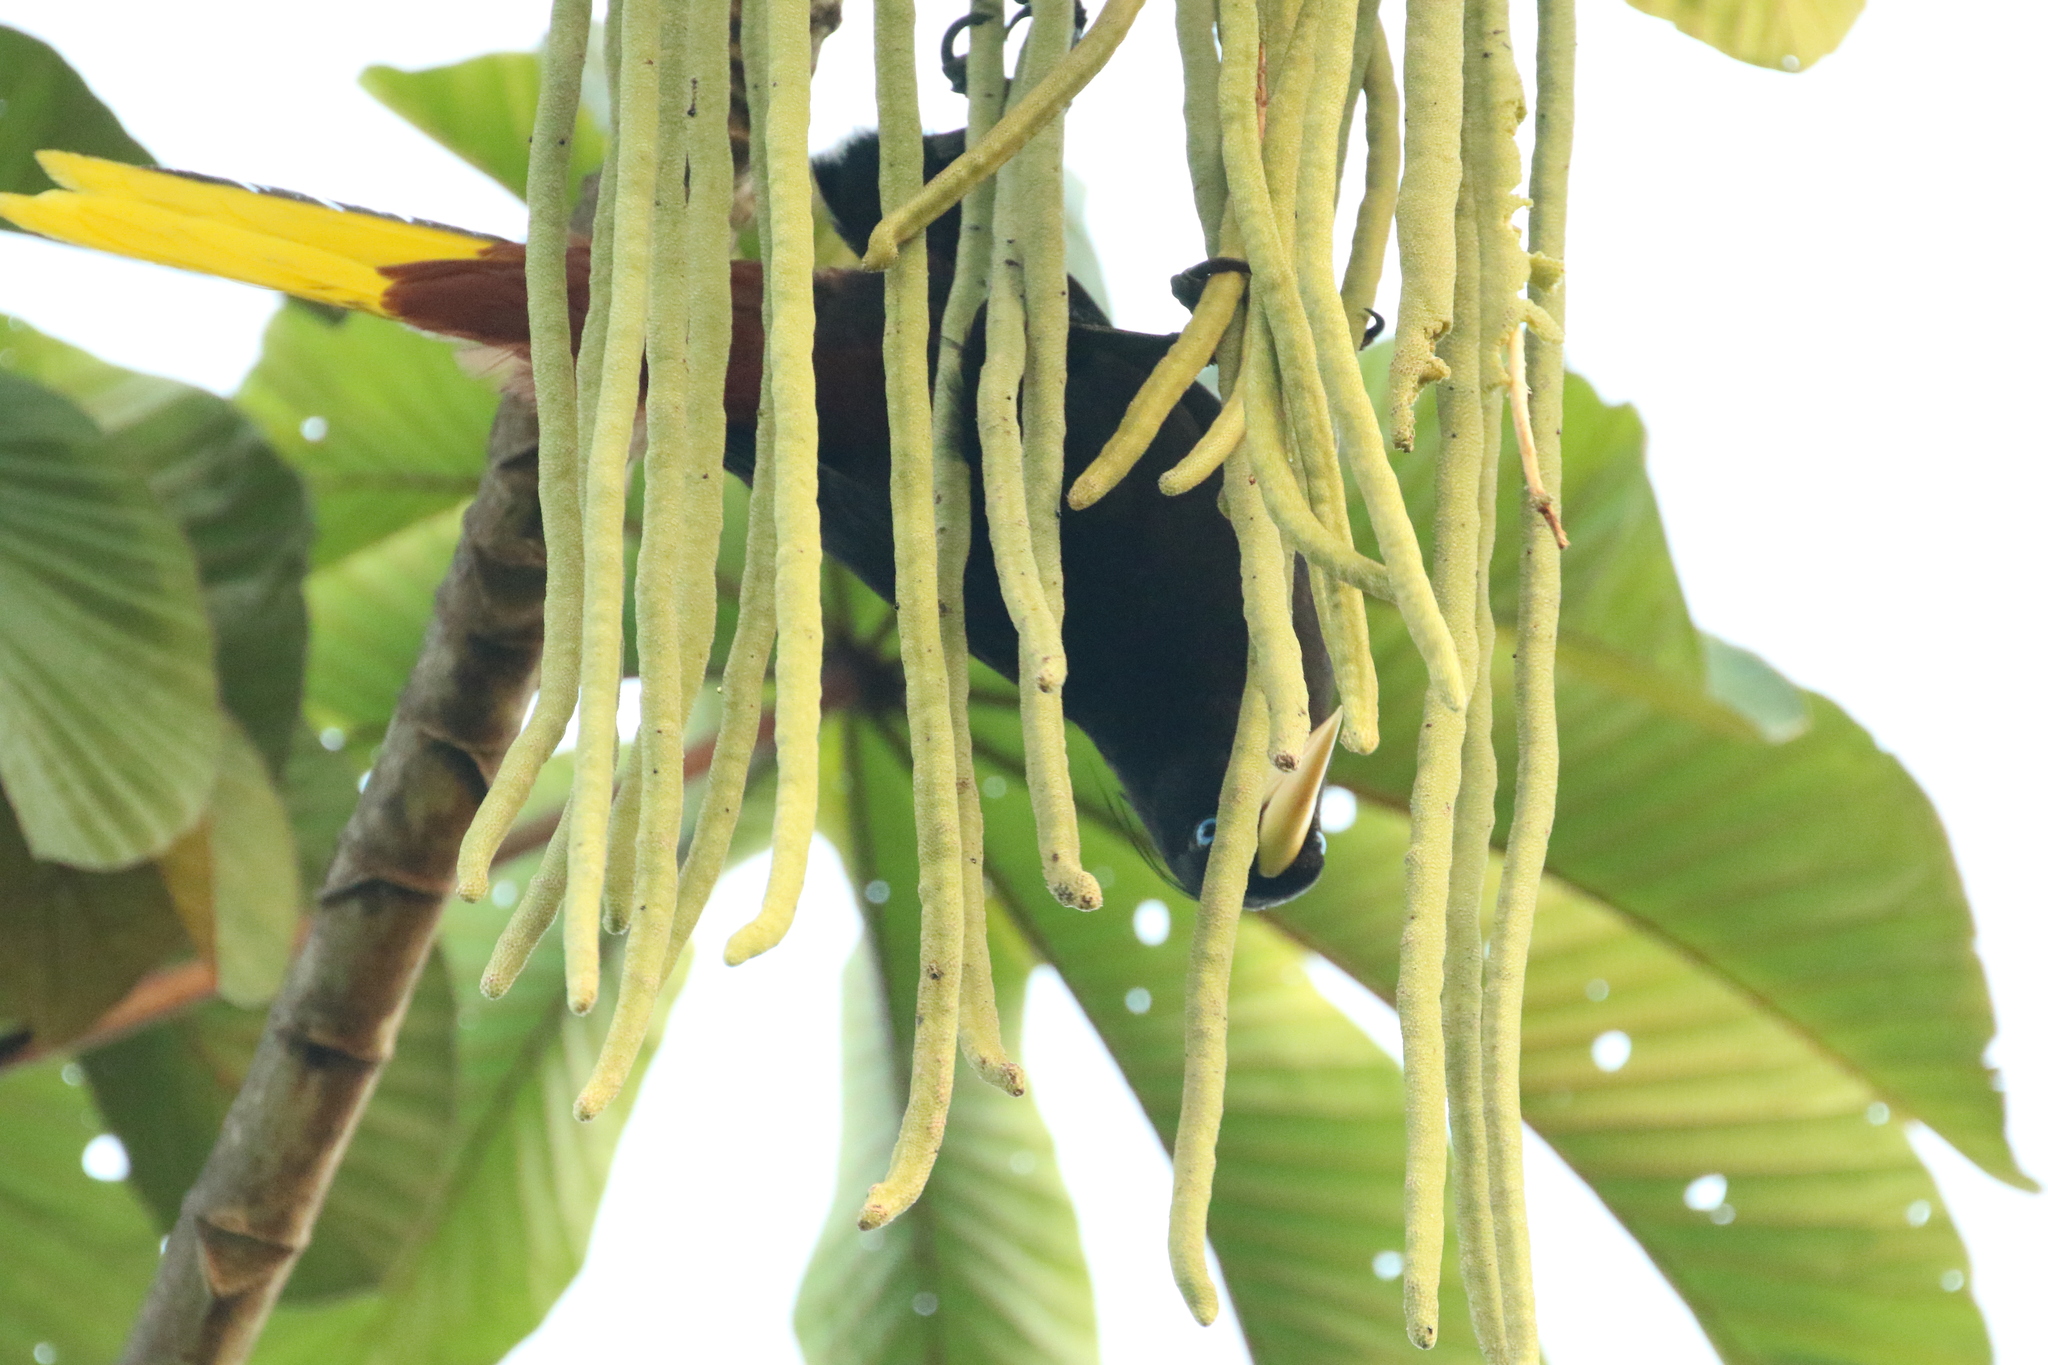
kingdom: Animalia
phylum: Chordata
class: Aves
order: Passeriformes
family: Icteridae
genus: Psarocolius
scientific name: Psarocolius wagleri
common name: Chestnut-headed oropendola
